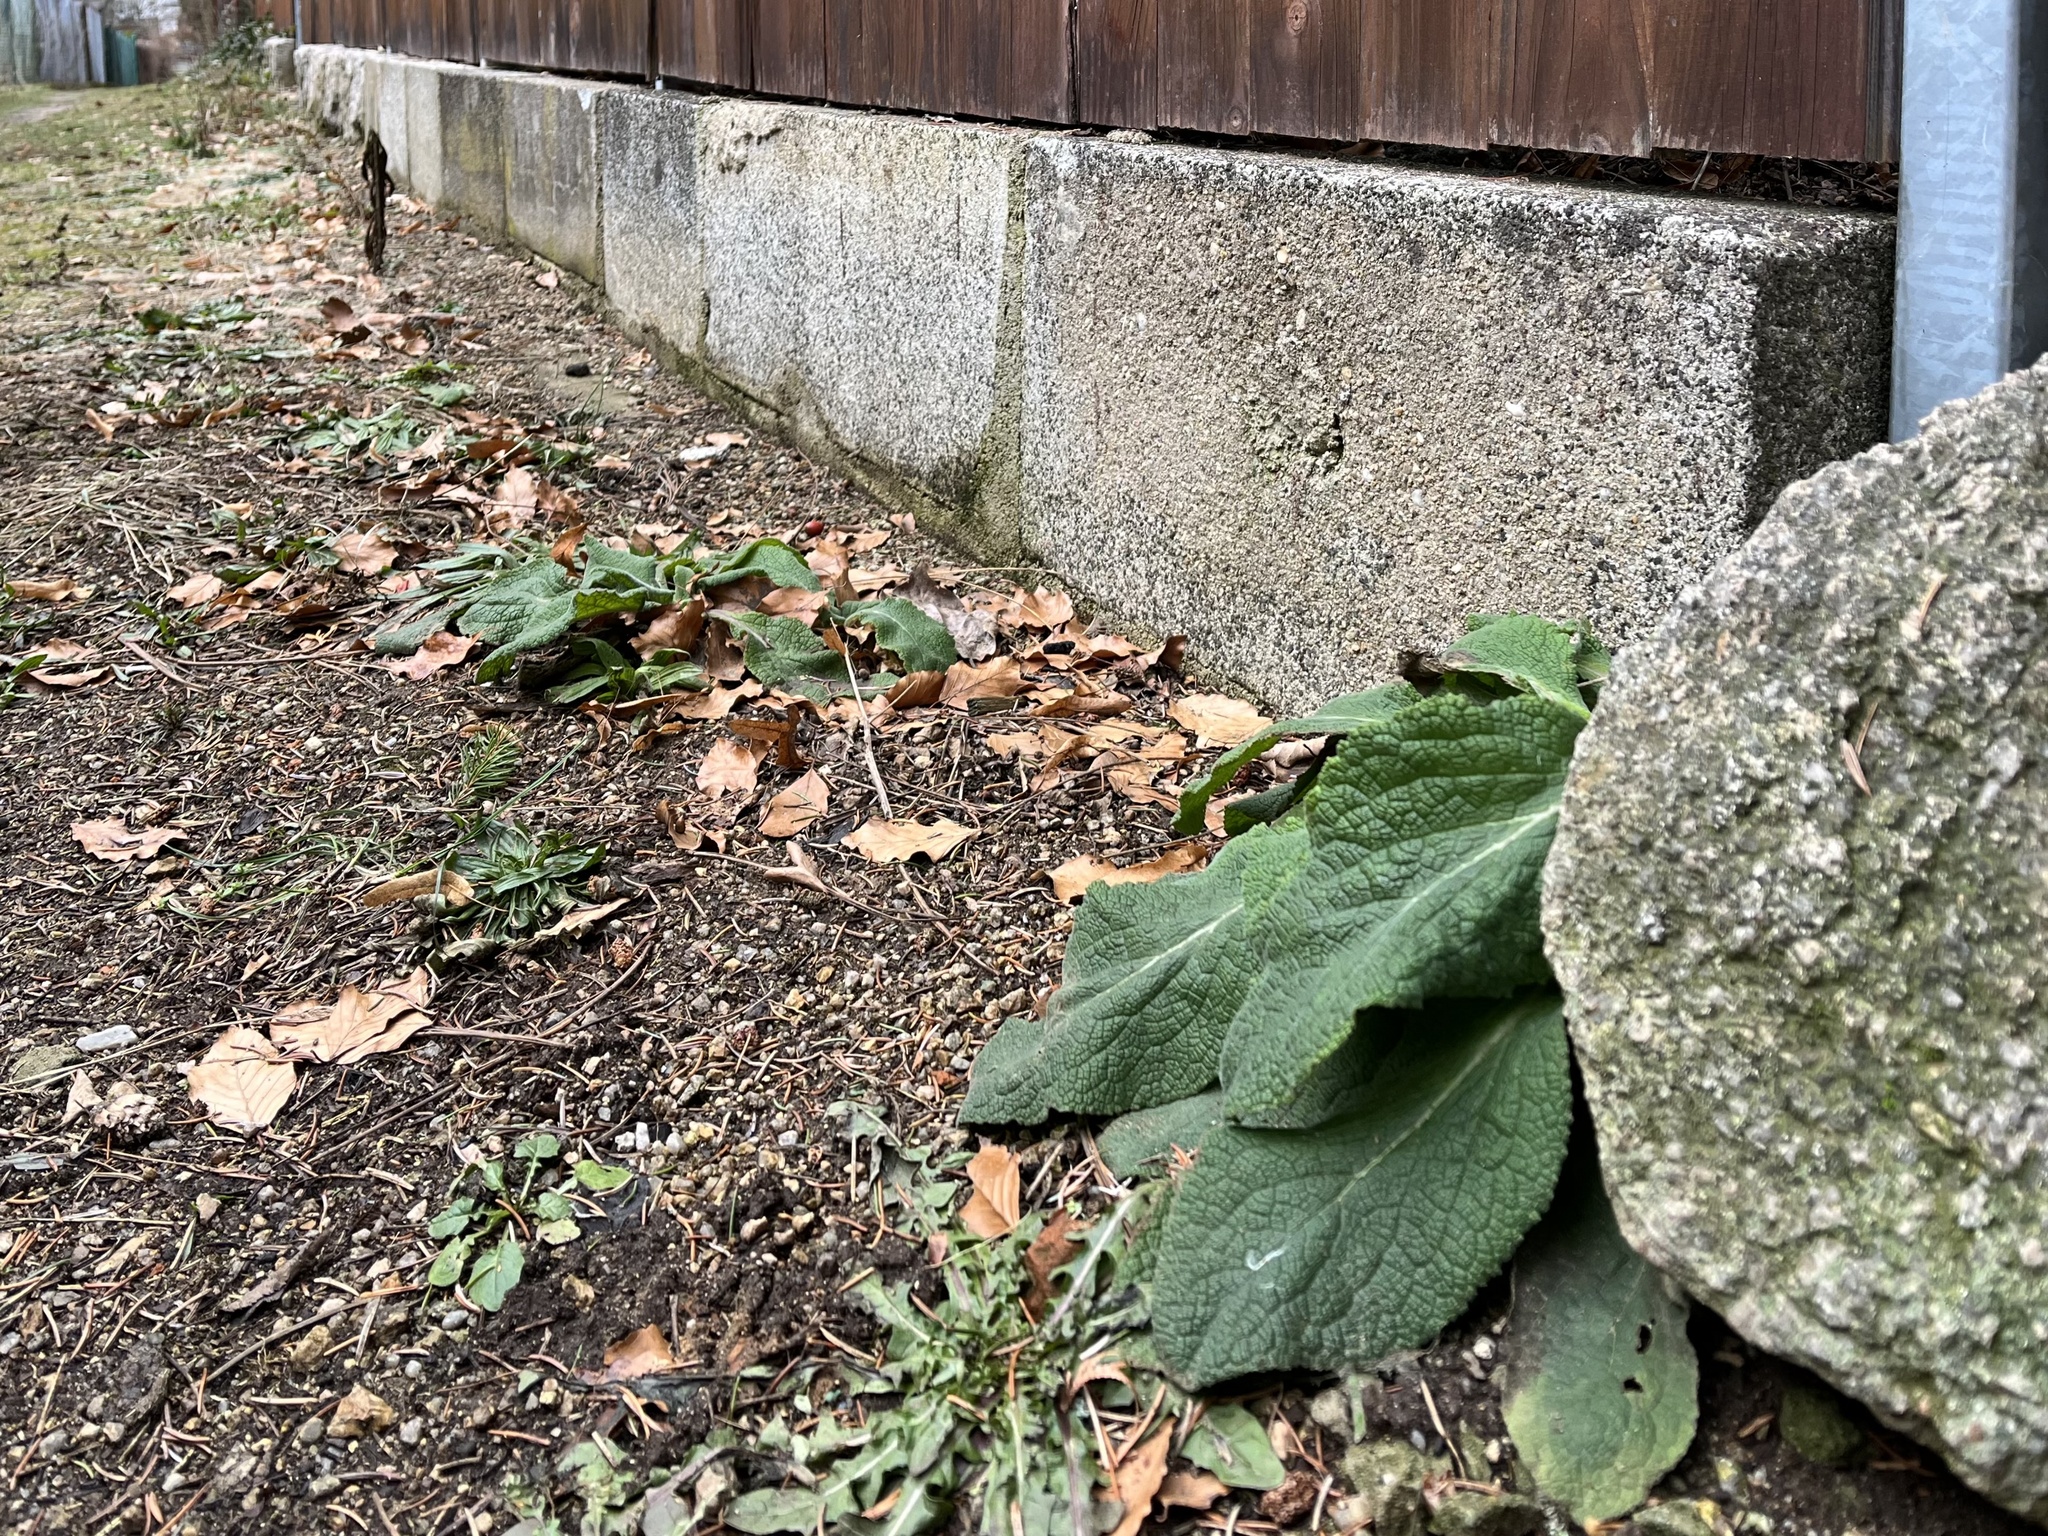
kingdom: Plantae
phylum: Tracheophyta
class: Magnoliopsida
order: Lamiales
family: Plantaginaceae
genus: Digitalis
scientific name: Digitalis purpurea
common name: Foxglove
